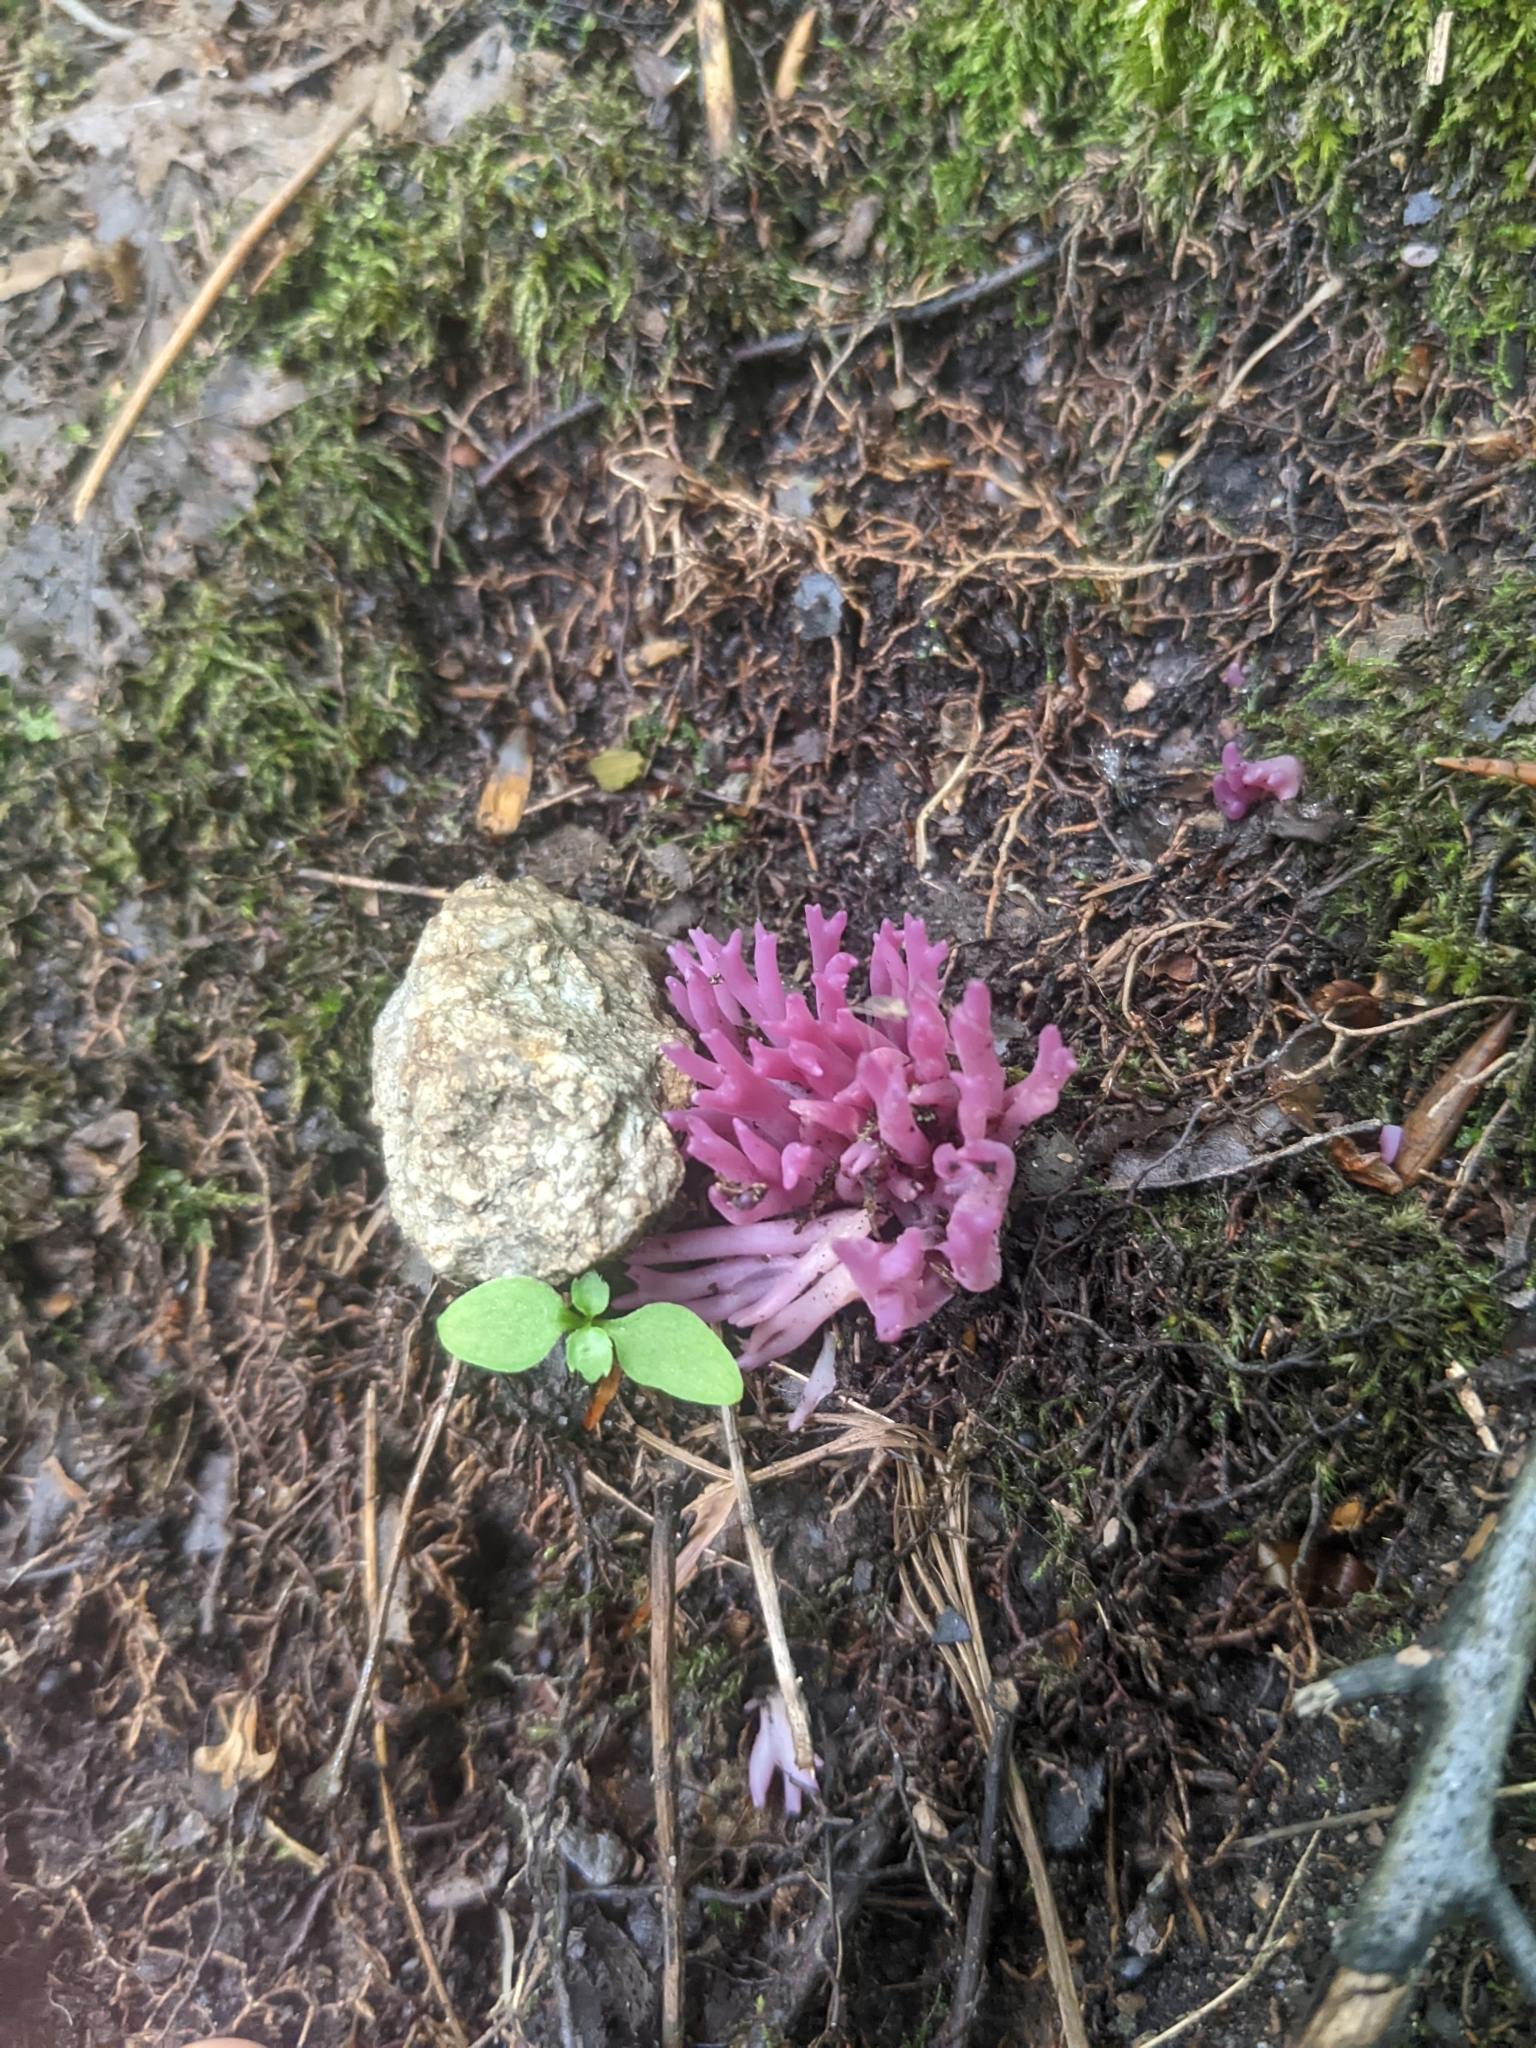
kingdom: Fungi
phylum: Basidiomycota
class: Agaricomycetes
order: Agaricales
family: Clavariaceae
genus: Clavaria
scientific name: Clavaria zollingeri
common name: Violet coral
